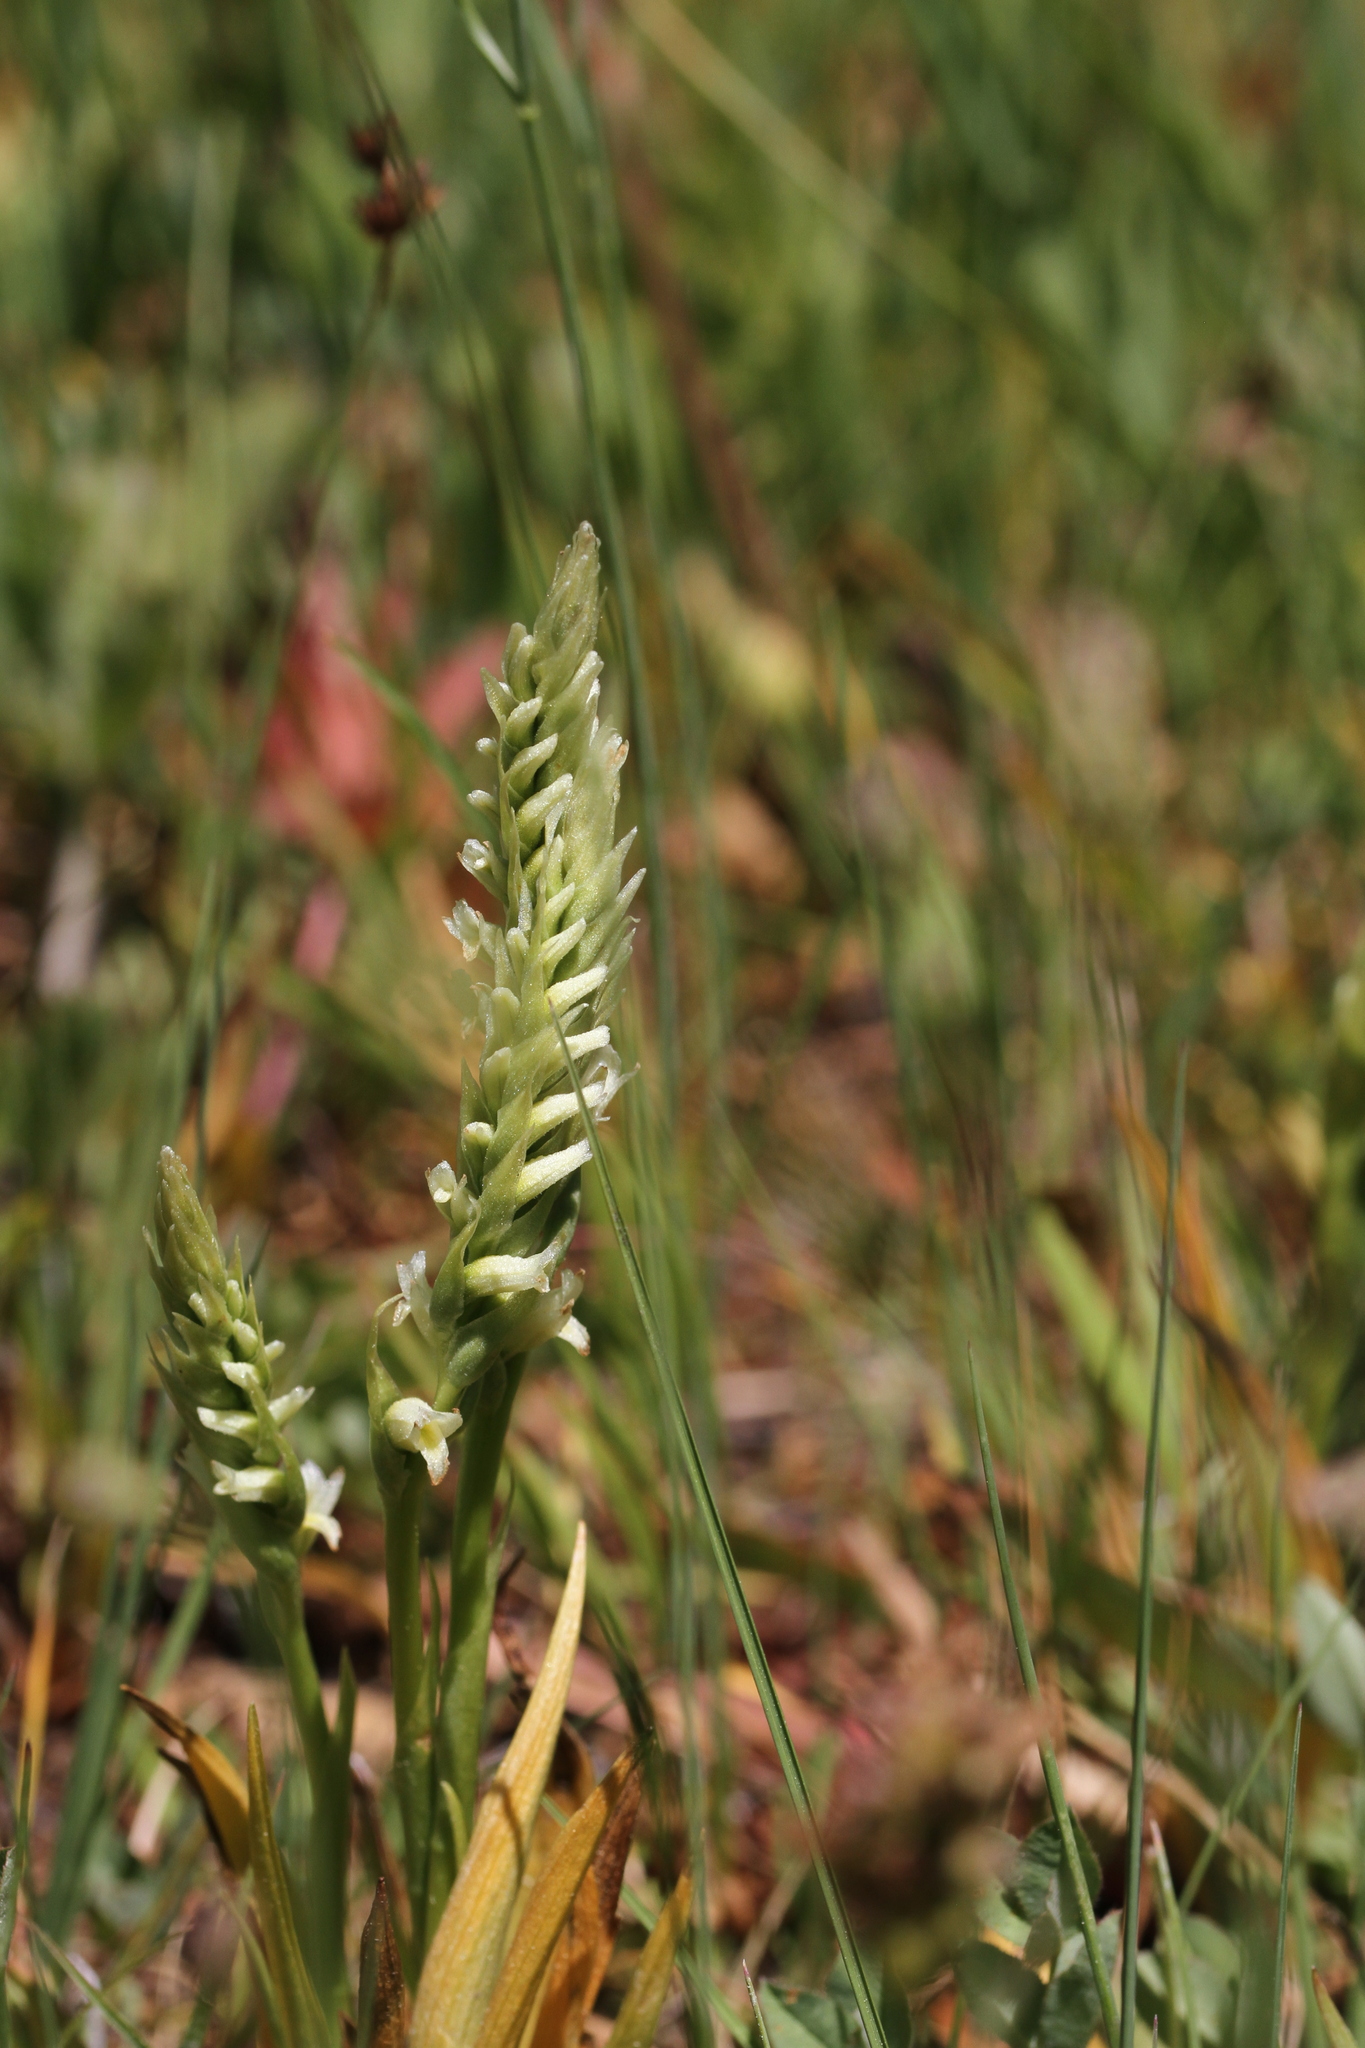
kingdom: Plantae
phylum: Tracheophyta
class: Liliopsida
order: Asparagales
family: Orchidaceae
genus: Spiranthes
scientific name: Spiranthes stellata
